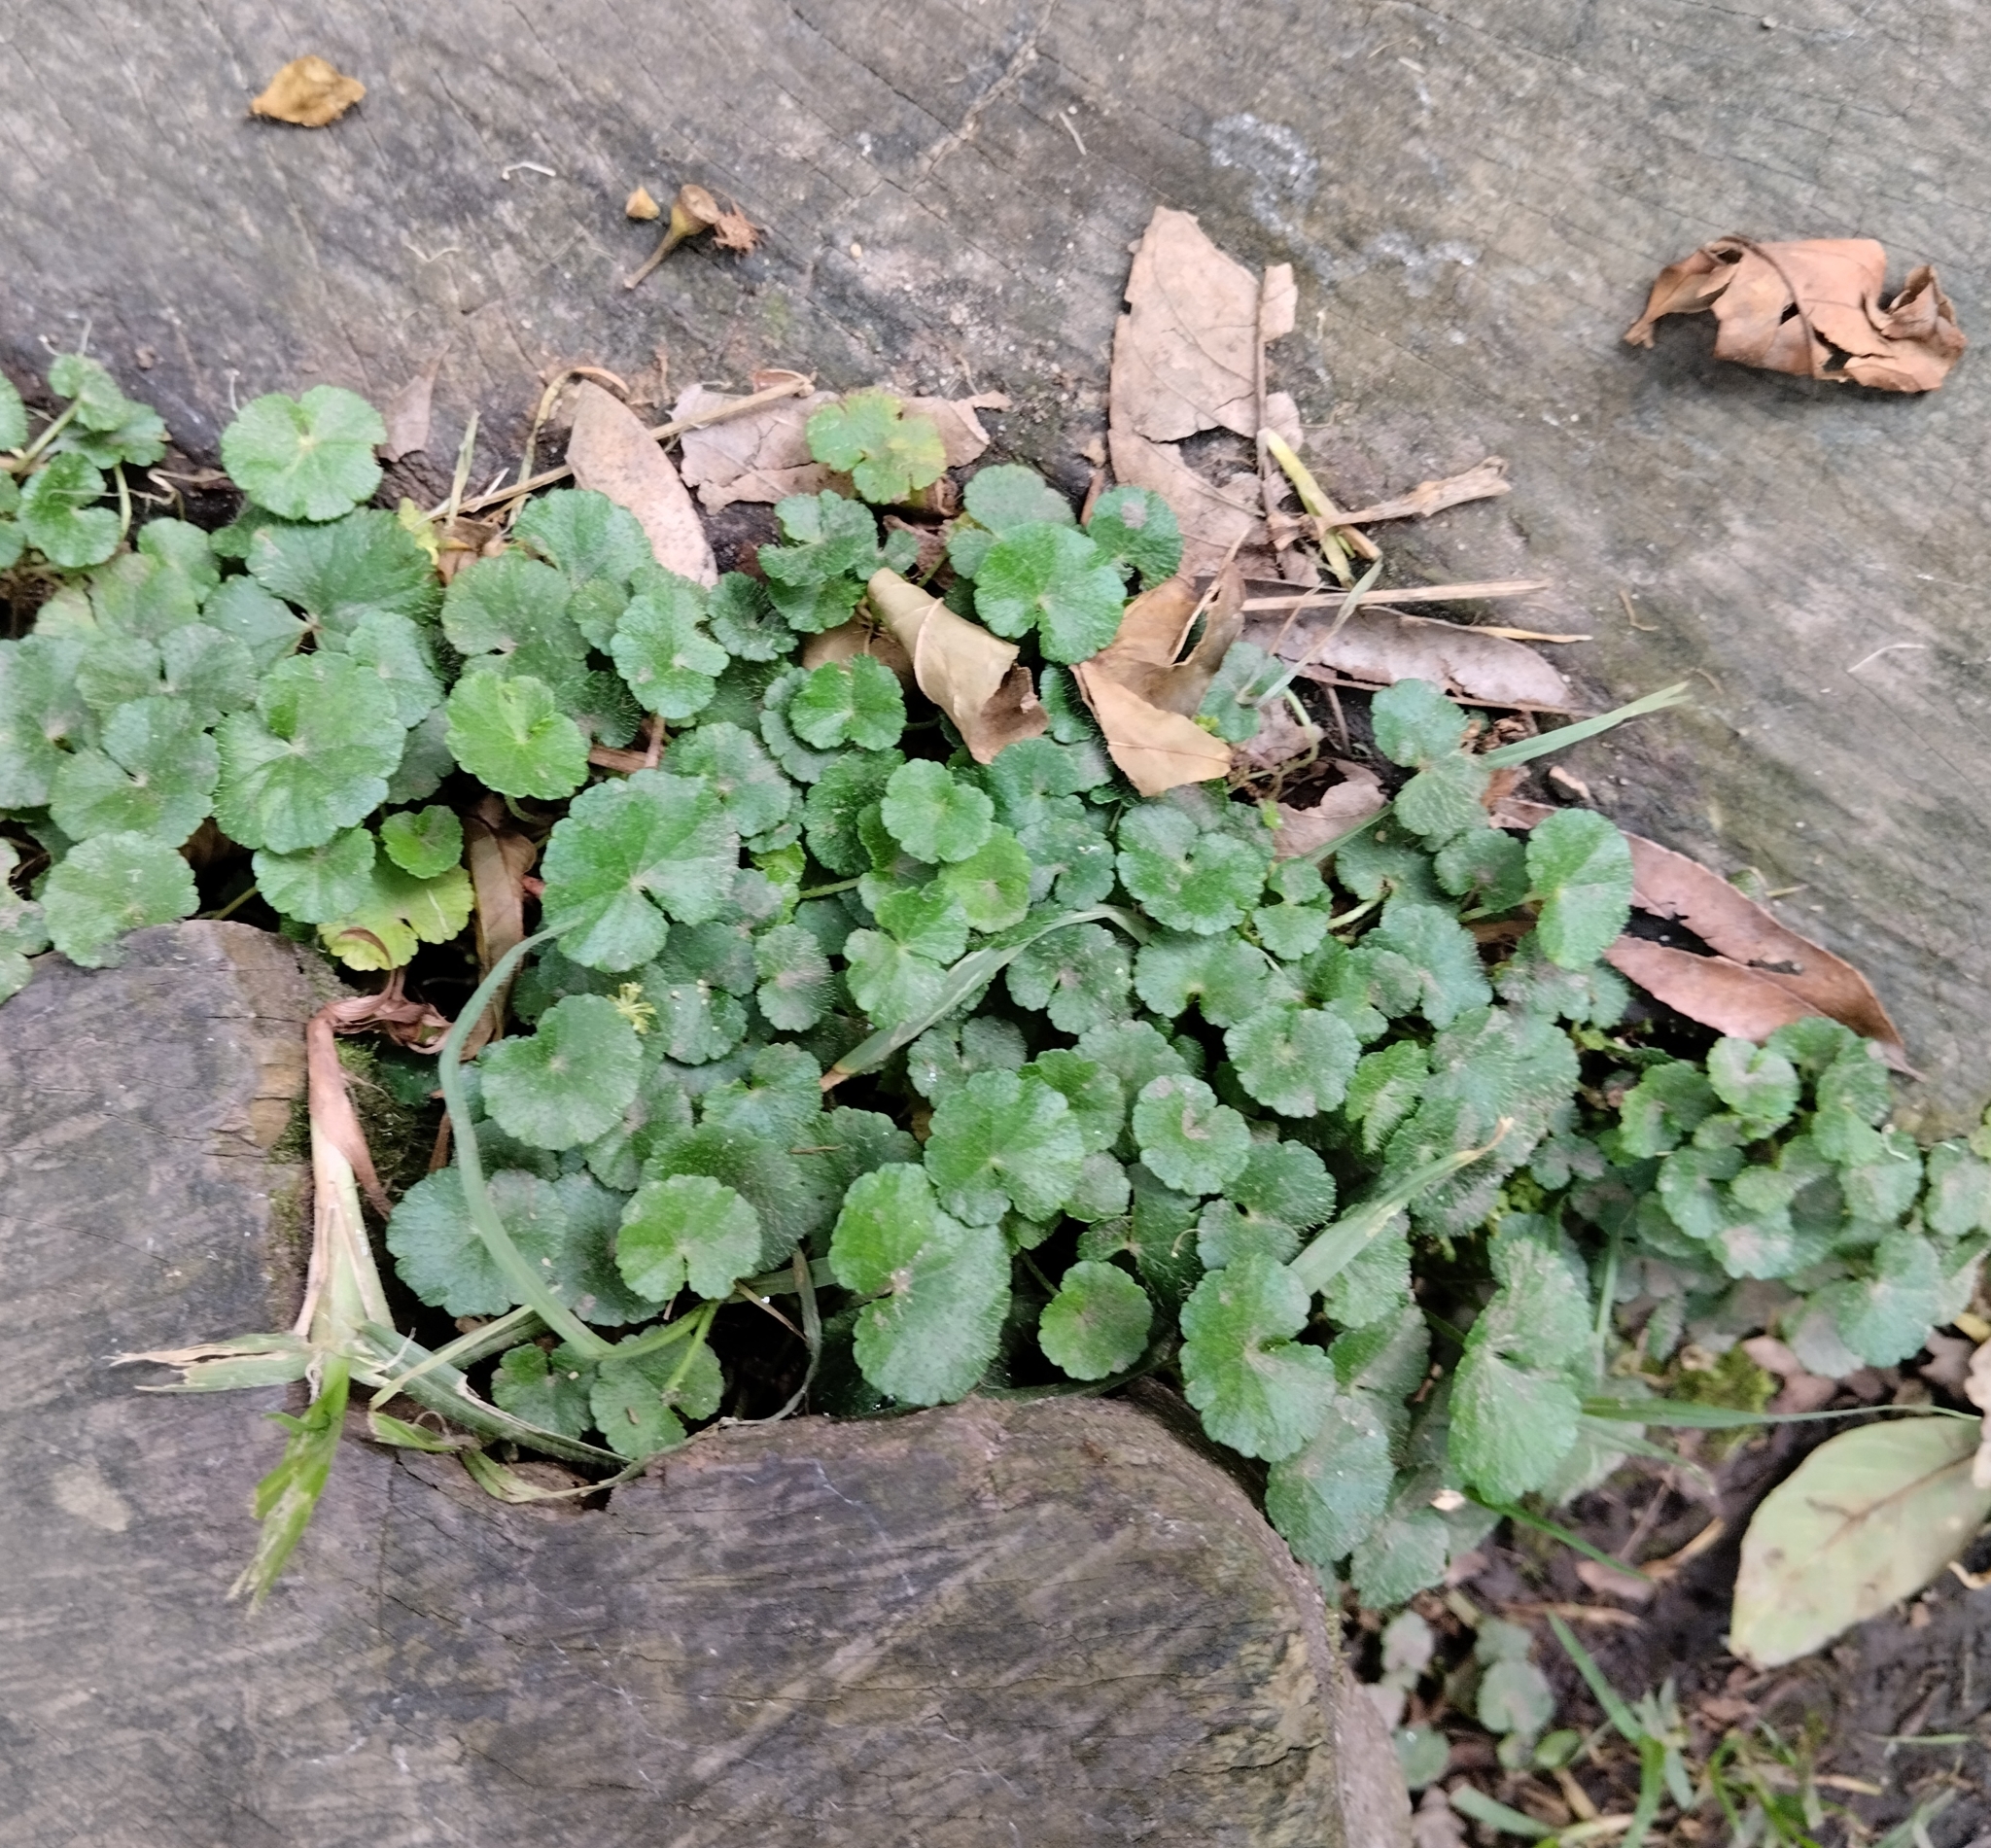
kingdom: Plantae
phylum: Tracheophyta
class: Magnoliopsida
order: Apiales
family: Araliaceae
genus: Hydrocotyle
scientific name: Hydrocotyle bonplandii
